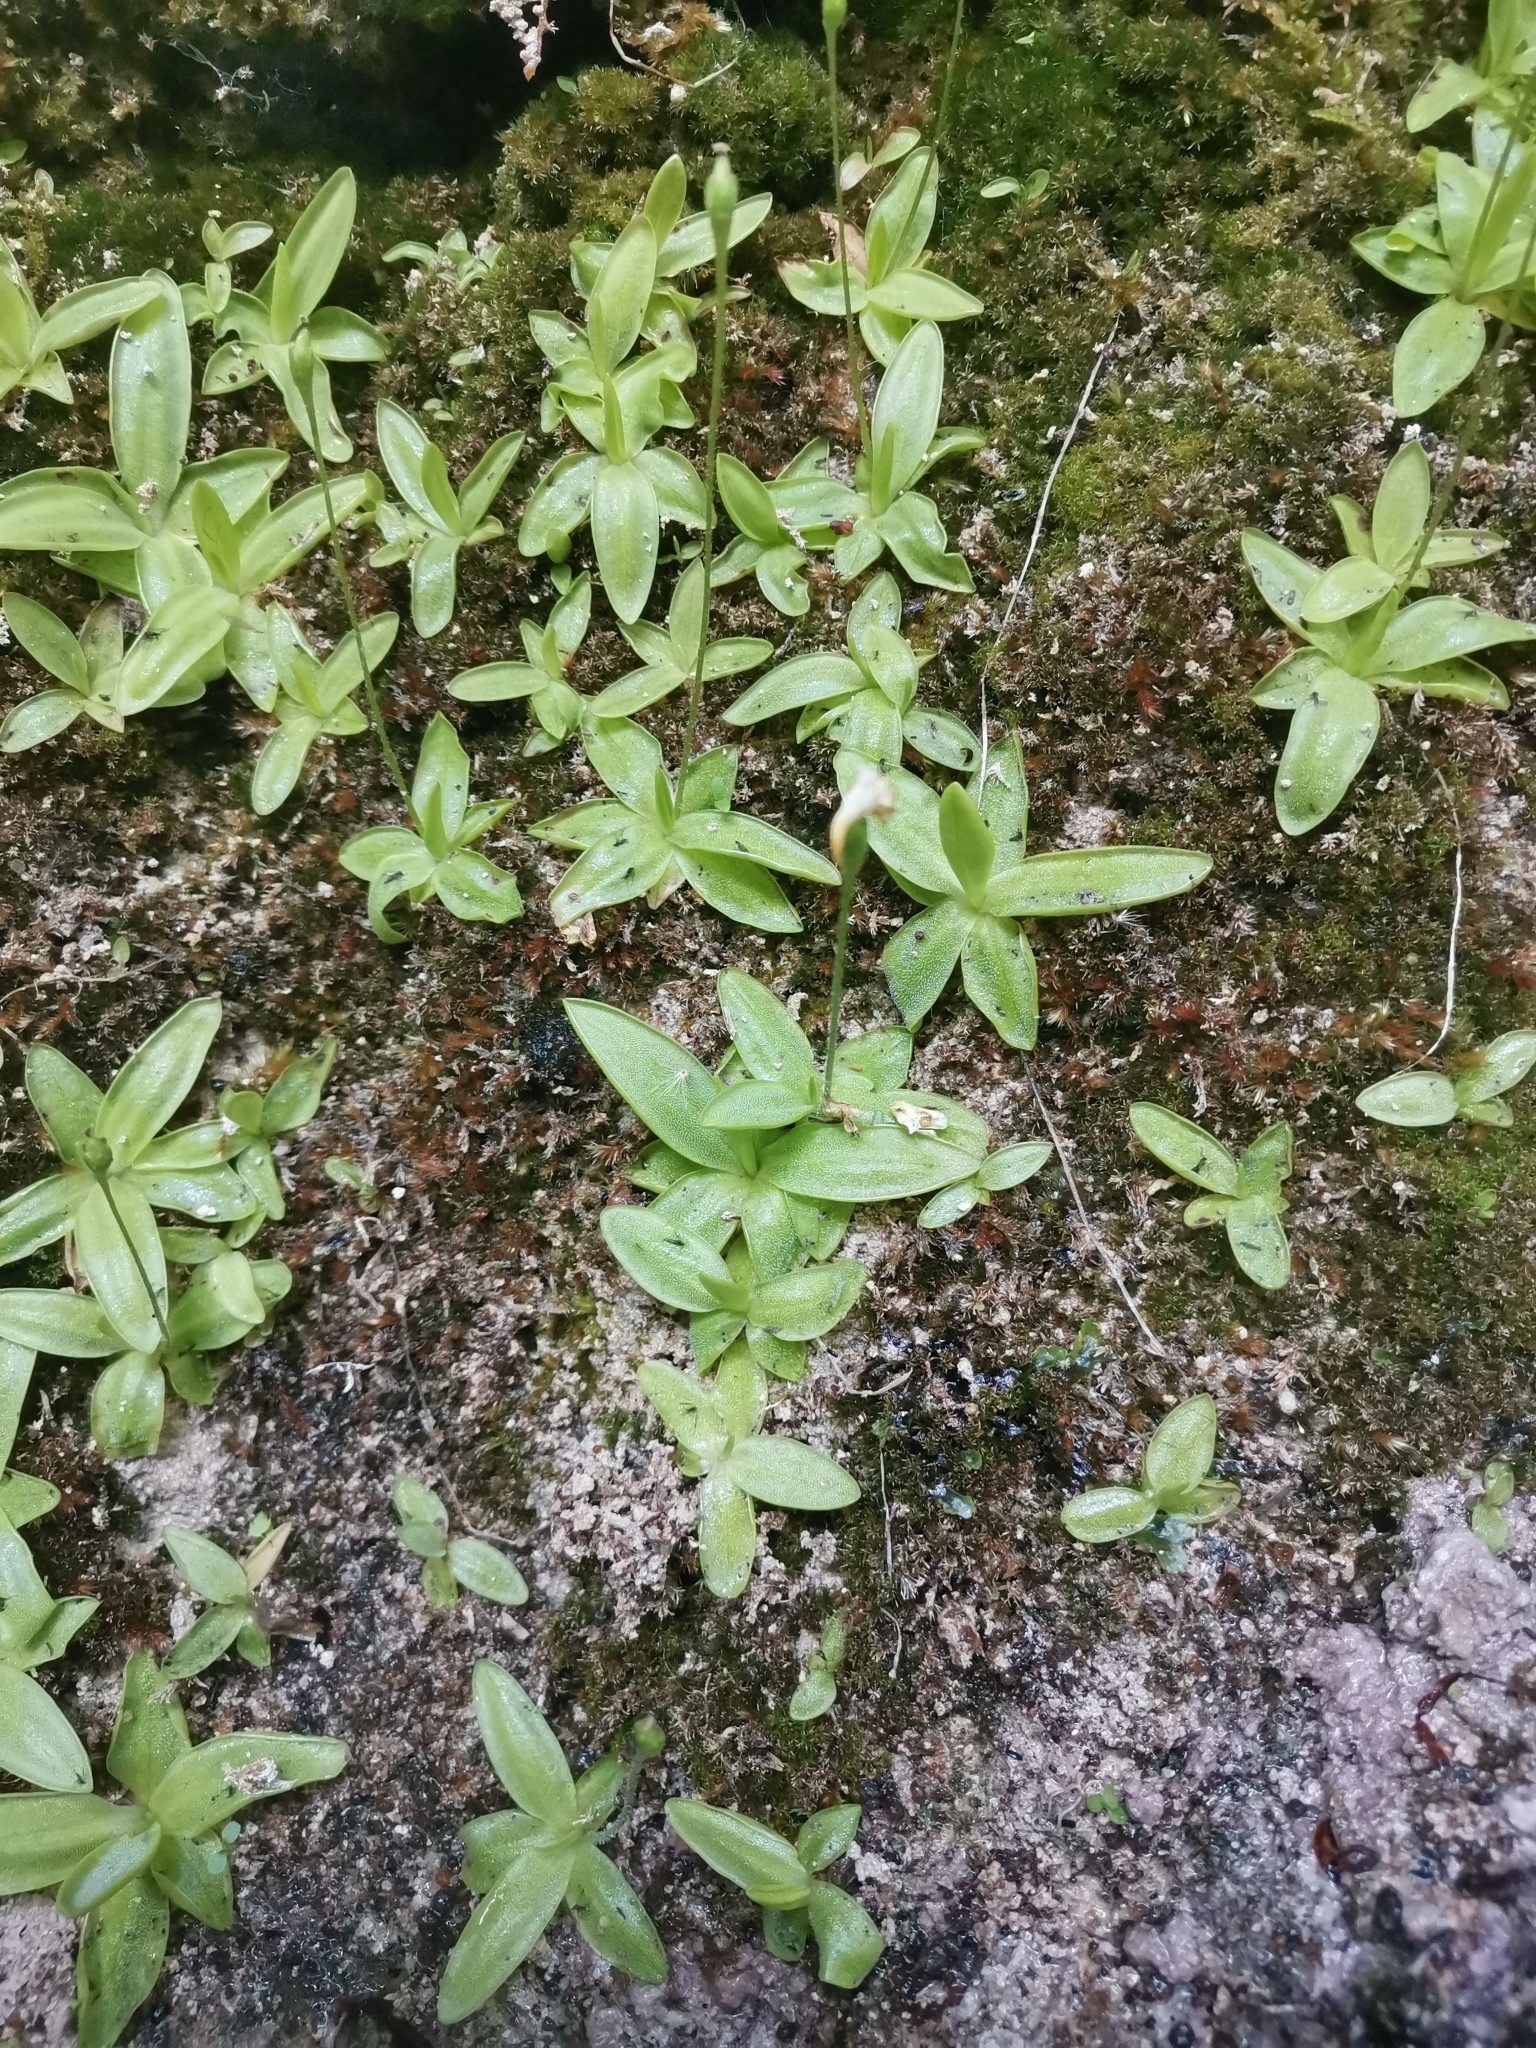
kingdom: Plantae
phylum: Tracheophyta
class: Magnoliopsida
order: Lamiales
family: Lentibulariaceae
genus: Pinguicula
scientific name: Pinguicula alpina
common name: Alpine butterwort
